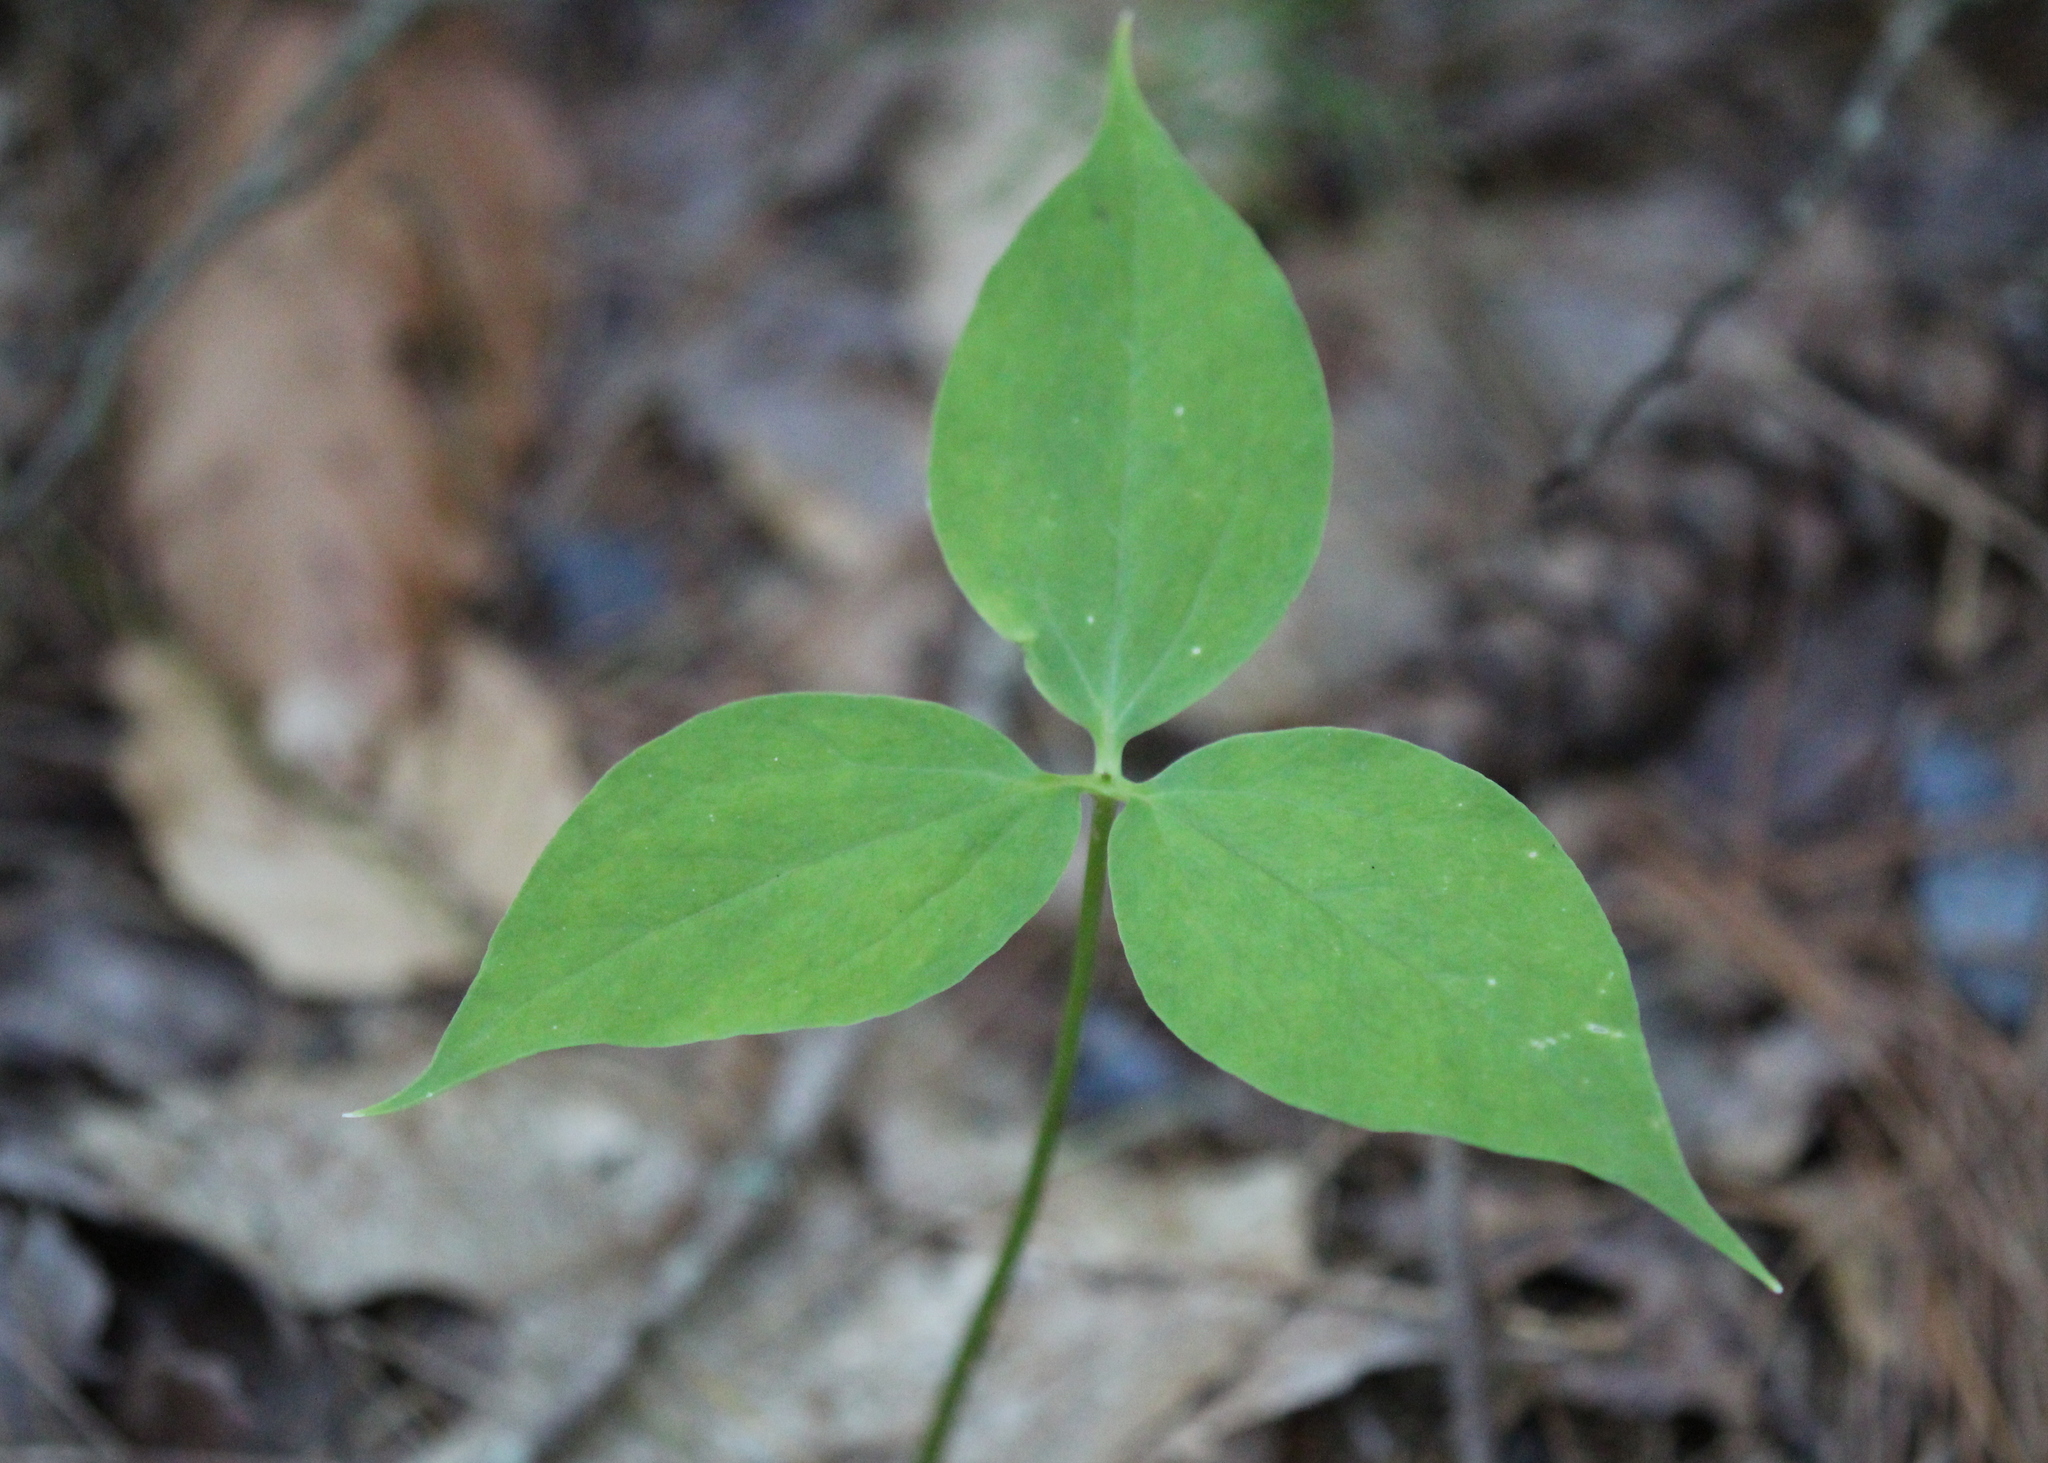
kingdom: Plantae
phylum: Tracheophyta
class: Liliopsida
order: Liliales
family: Melanthiaceae
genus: Trillium
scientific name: Trillium undulatum
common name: Paint trillium
